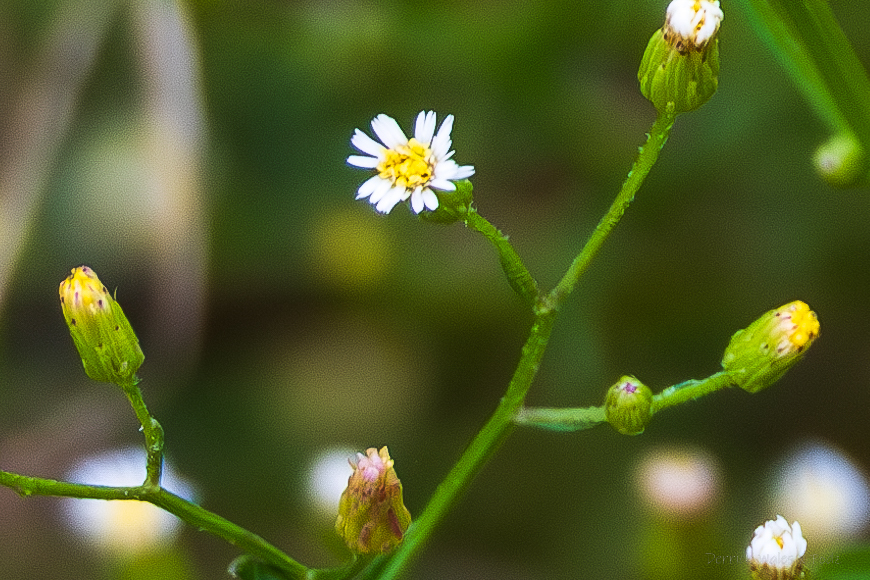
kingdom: Plantae
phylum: Tracheophyta
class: Magnoliopsida
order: Asterales
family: Asteraceae
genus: Erigeron
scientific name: Erigeron canadensis
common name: Canadian fleabane
